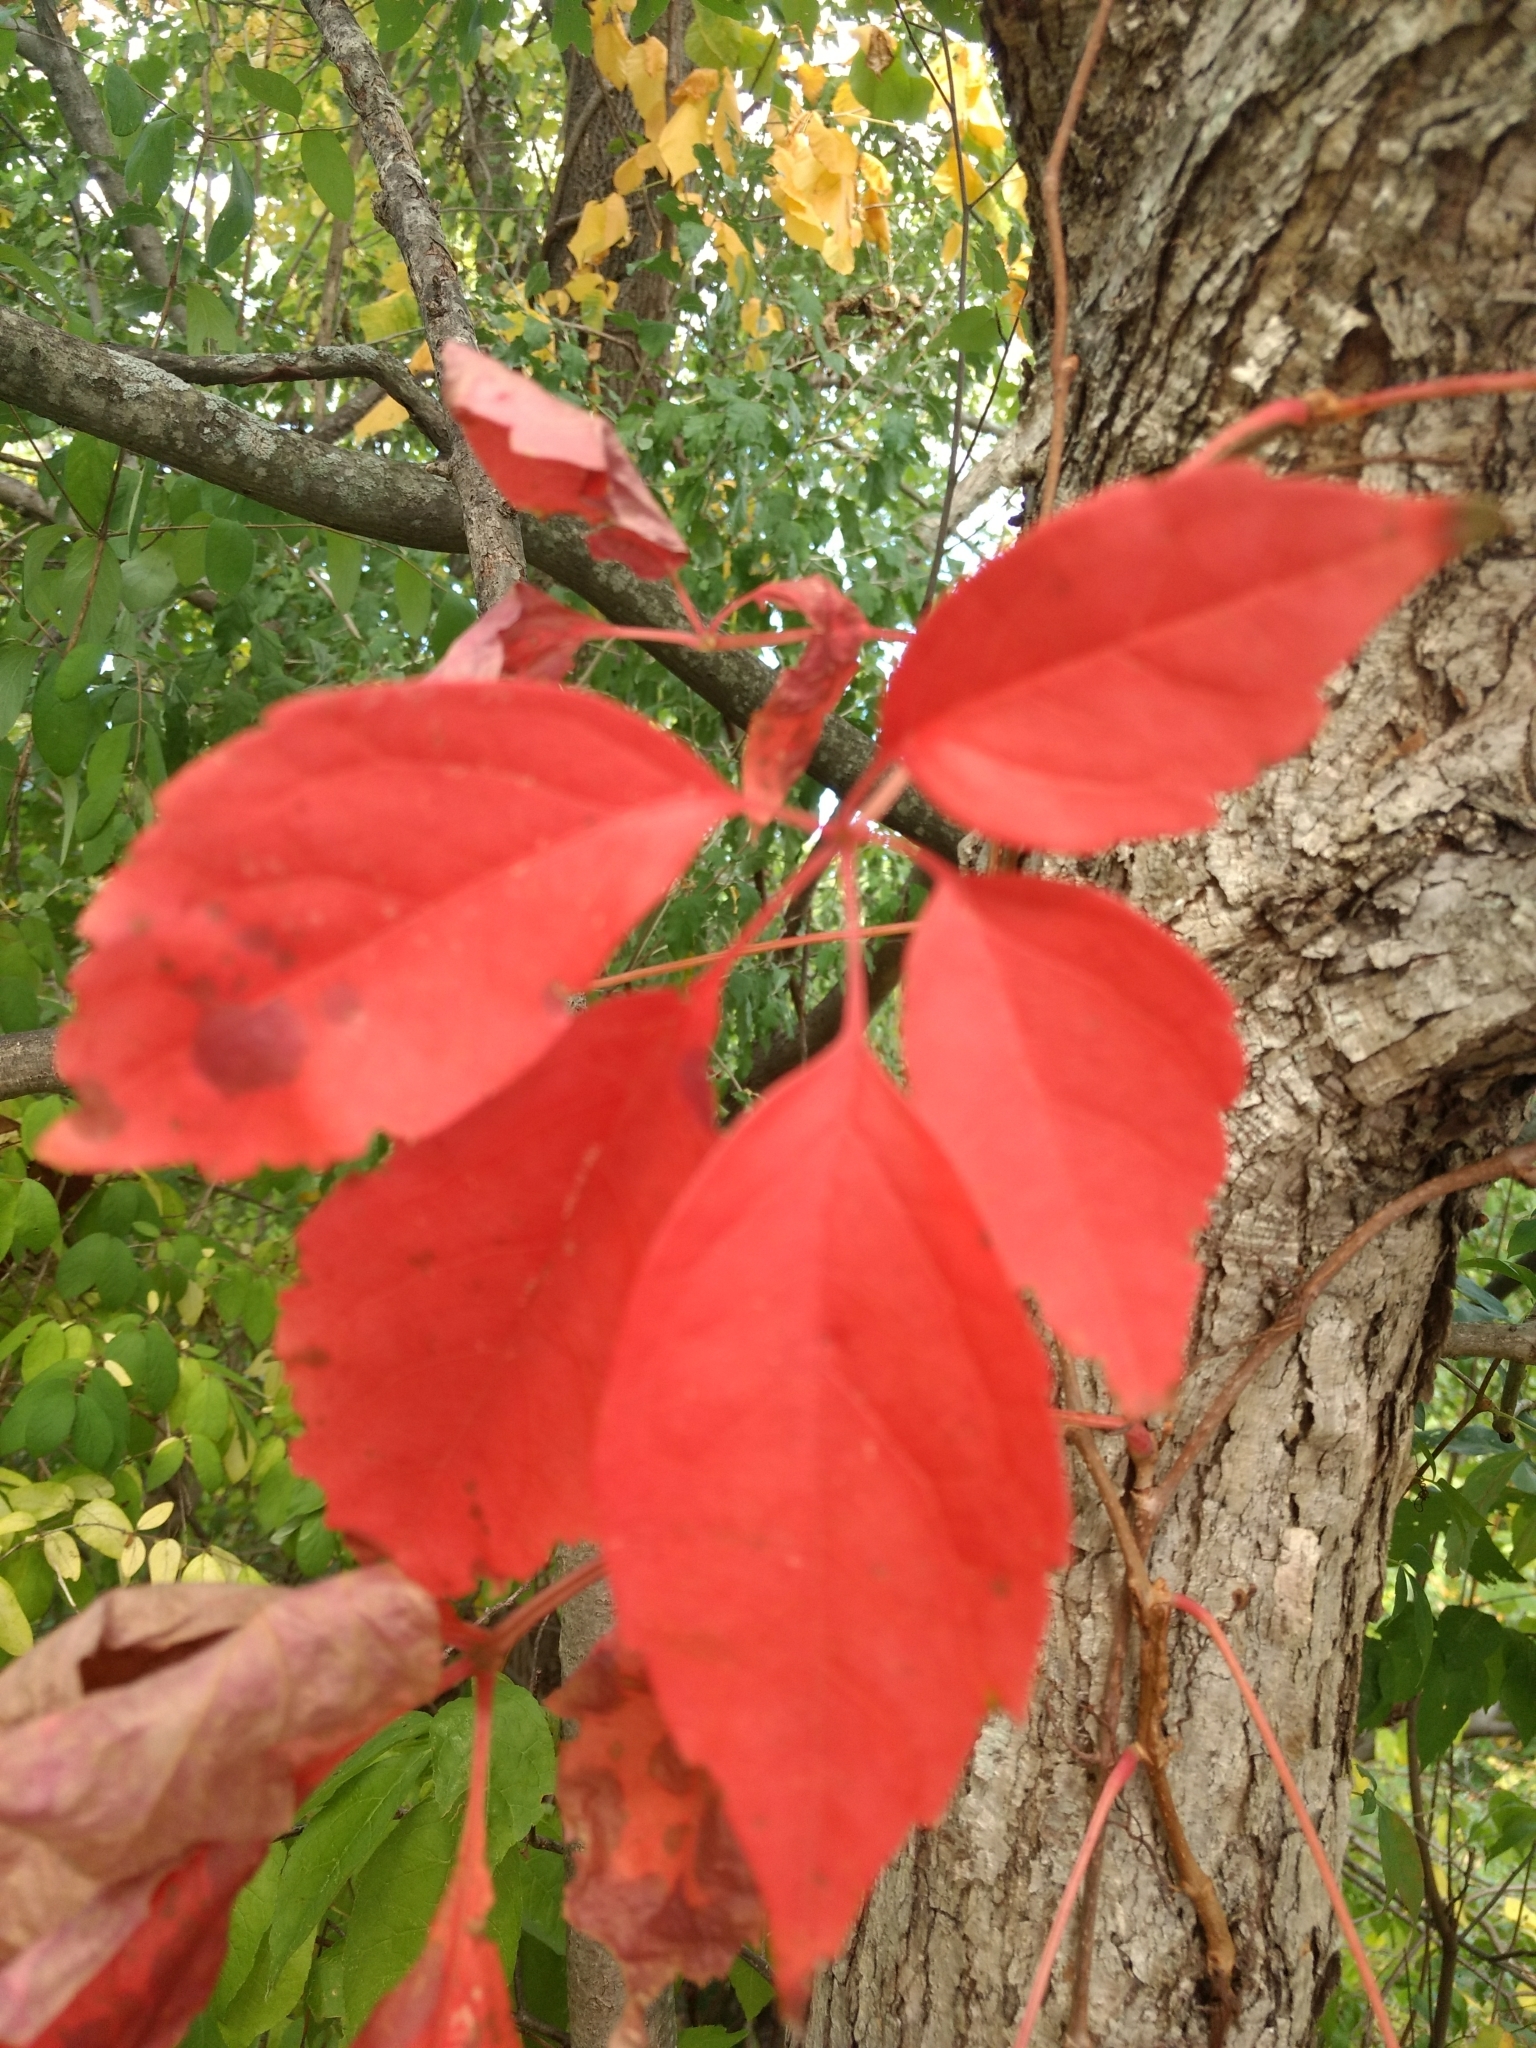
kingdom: Plantae
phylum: Tracheophyta
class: Magnoliopsida
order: Vitales
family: Vitaceae
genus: Parthenocissus
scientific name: Parthenocissus inserta
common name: False virginia-creeper
